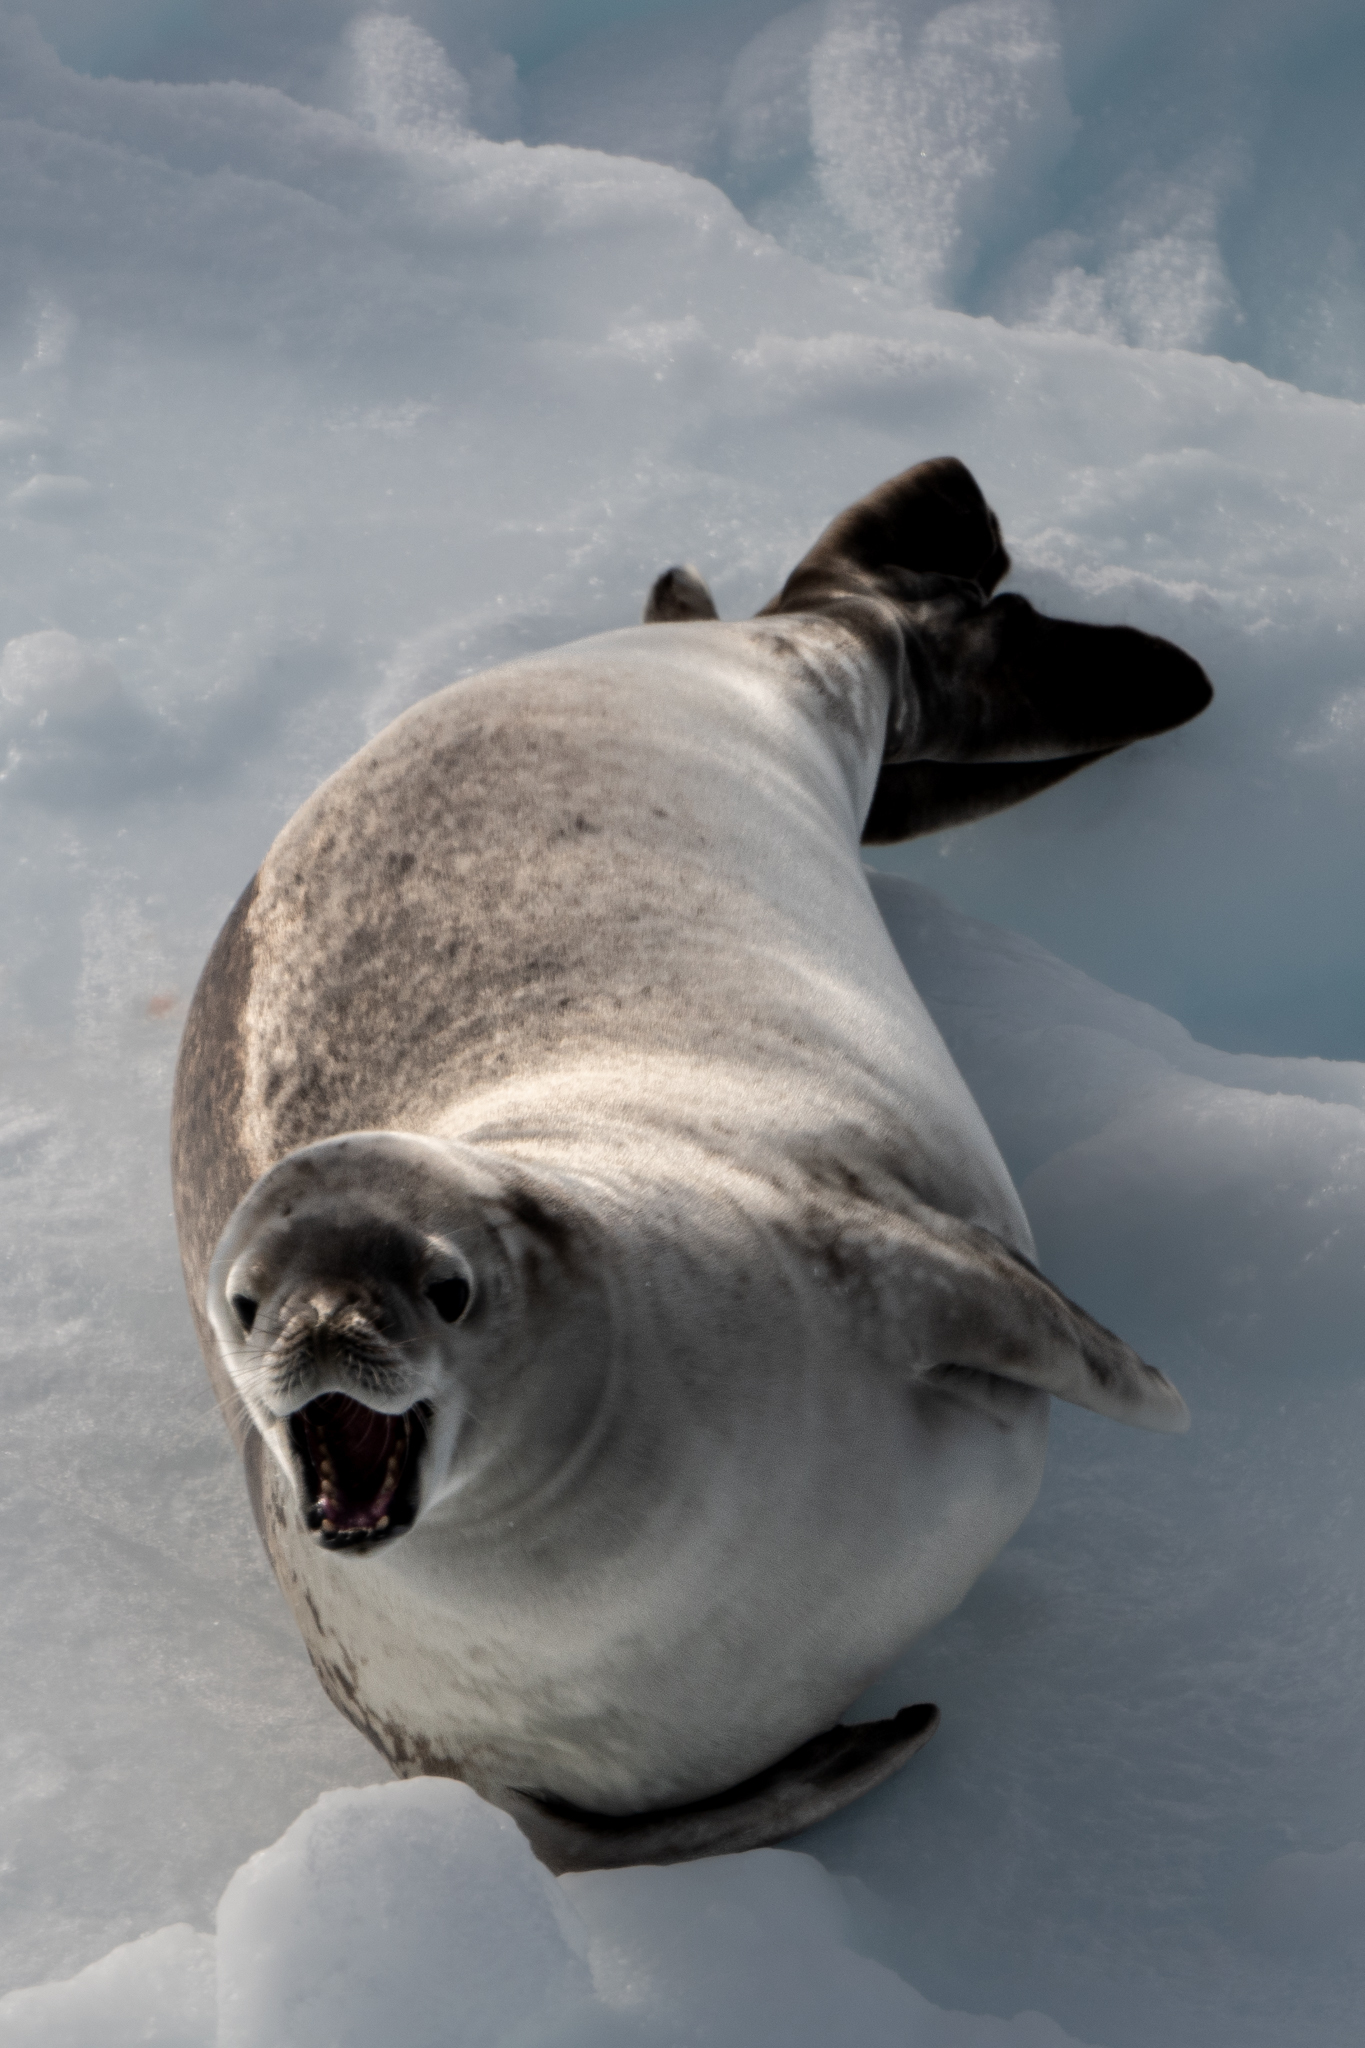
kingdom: Animalia
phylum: Chordata
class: Mammalia
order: Carnivora
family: Phocidae
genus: Lobodon
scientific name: Lobodon carcinophaga
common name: Crabeater seal
